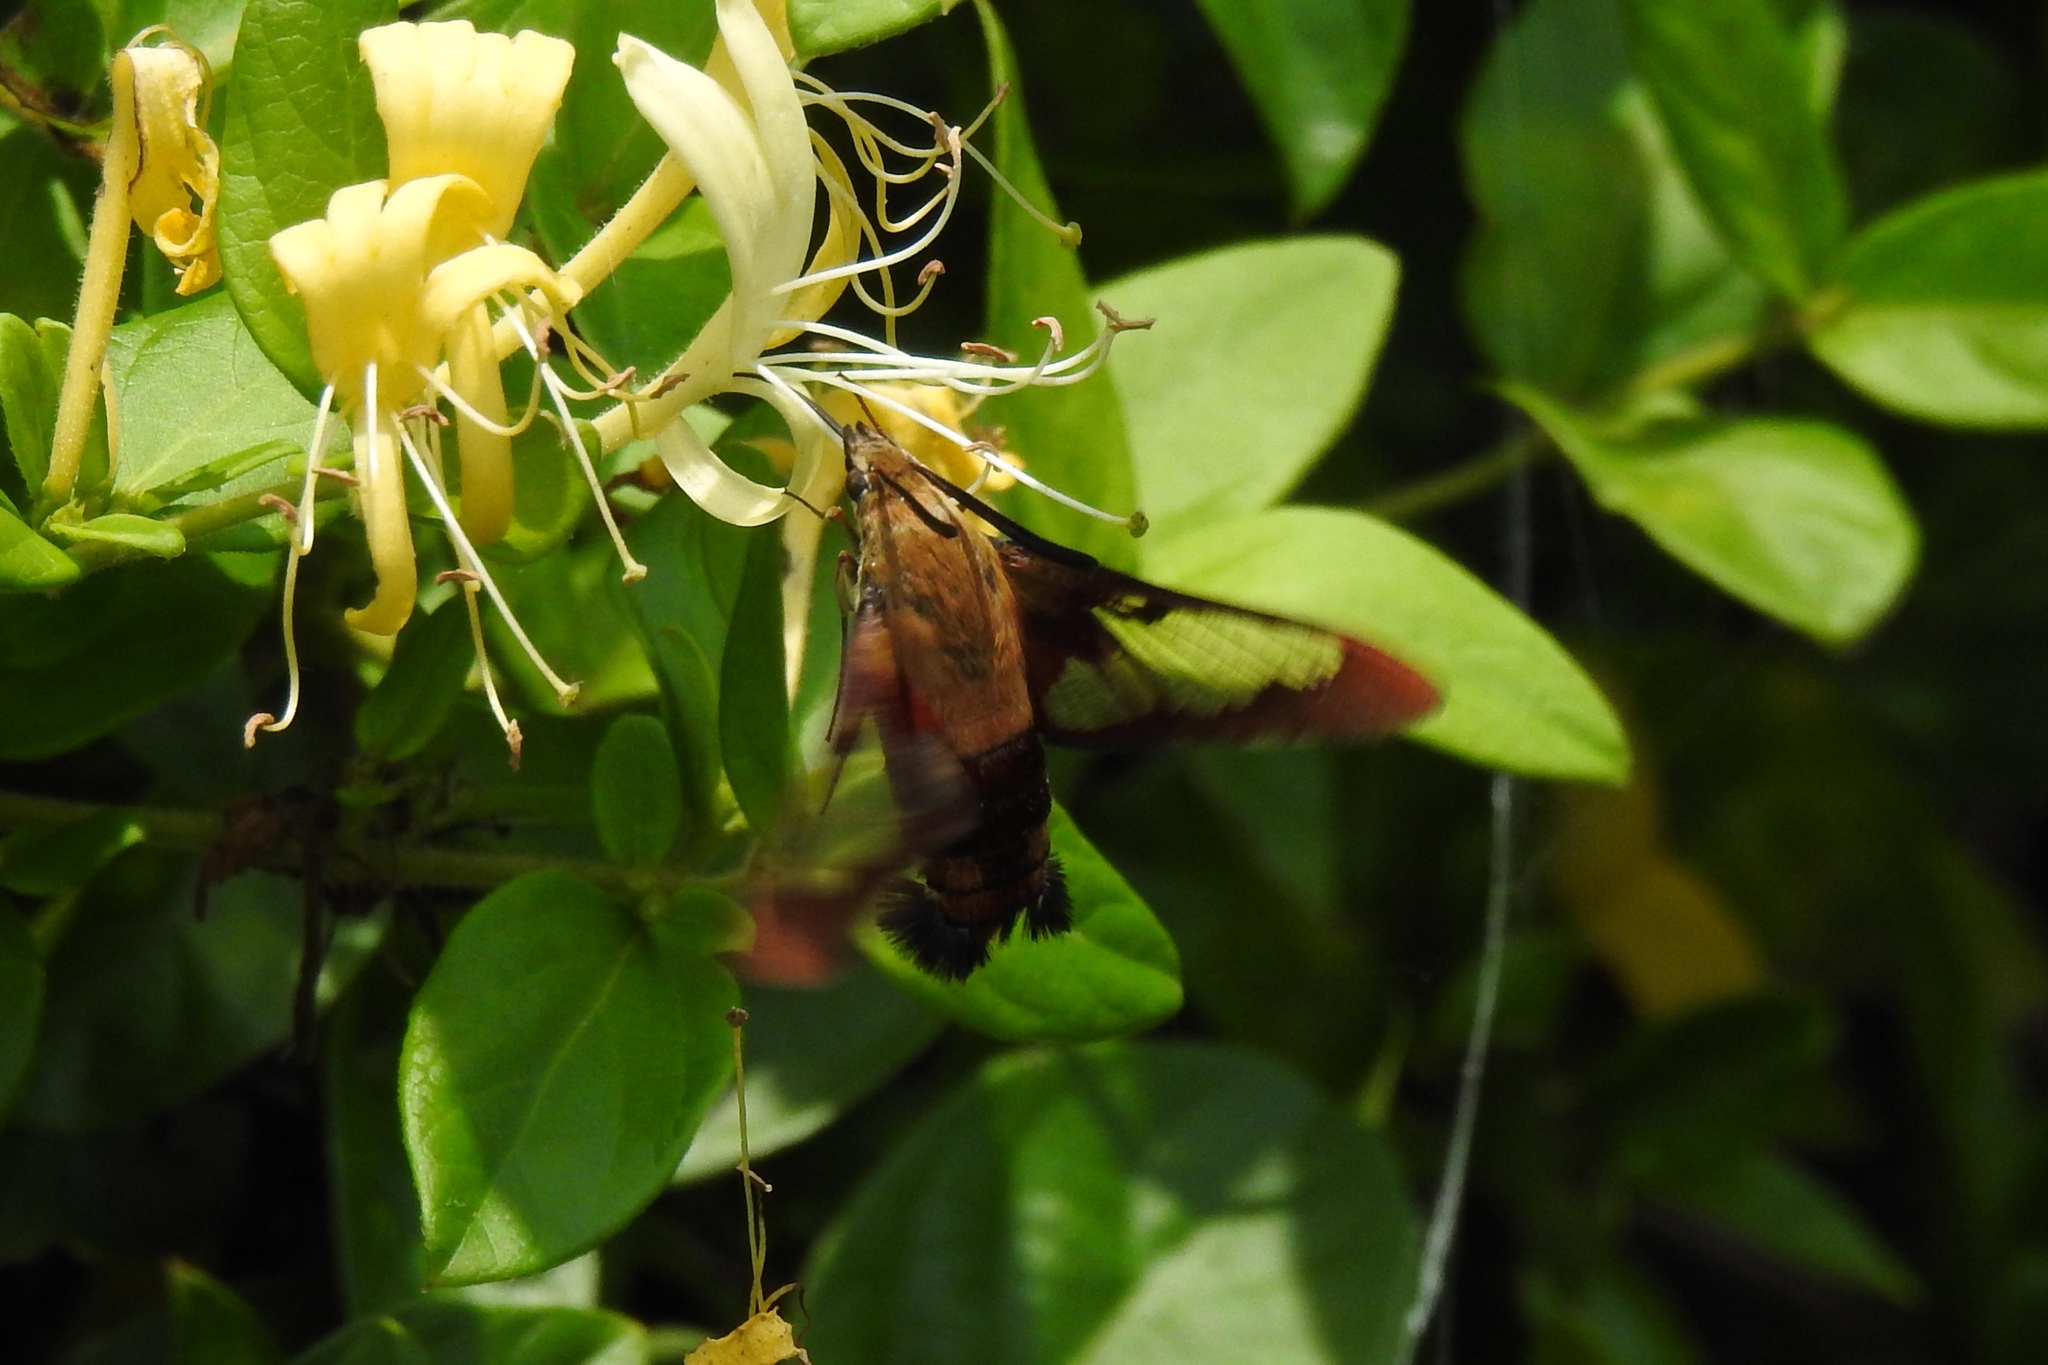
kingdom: Animalia
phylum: Arthropoda
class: Insecta
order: Lepidoptera
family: Sphingidae
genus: Hemaris
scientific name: Hemaris thysbe
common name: Common clear-wing
